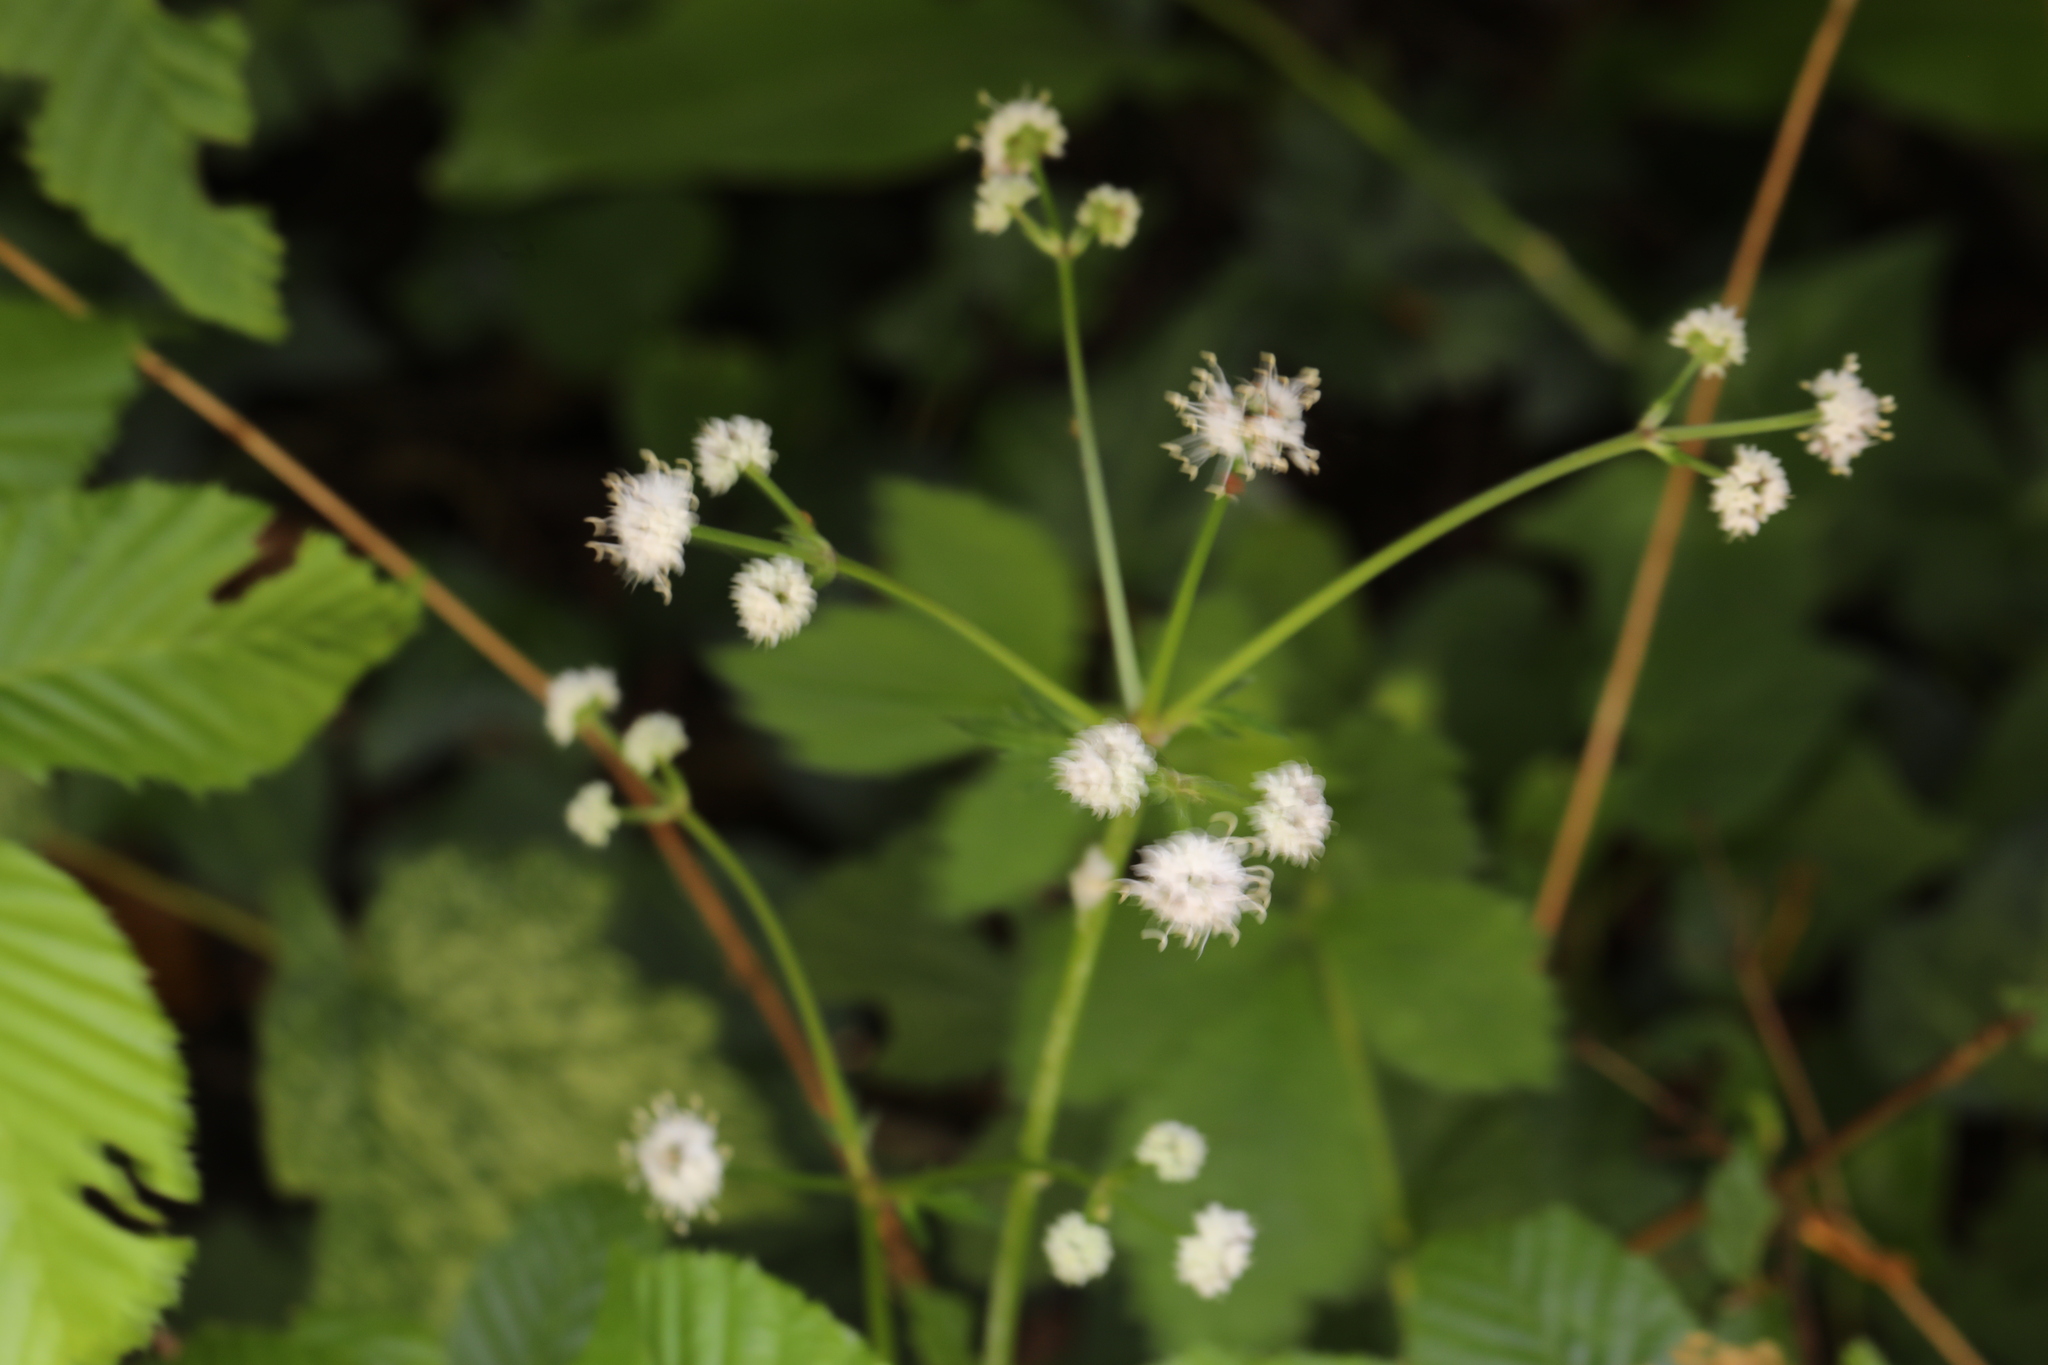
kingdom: Plantae
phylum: Tracheophyta
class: Magnoliopsida
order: Apiales
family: Apiaceae
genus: Sanicula
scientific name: Sanicula europaea
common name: Sanicle
